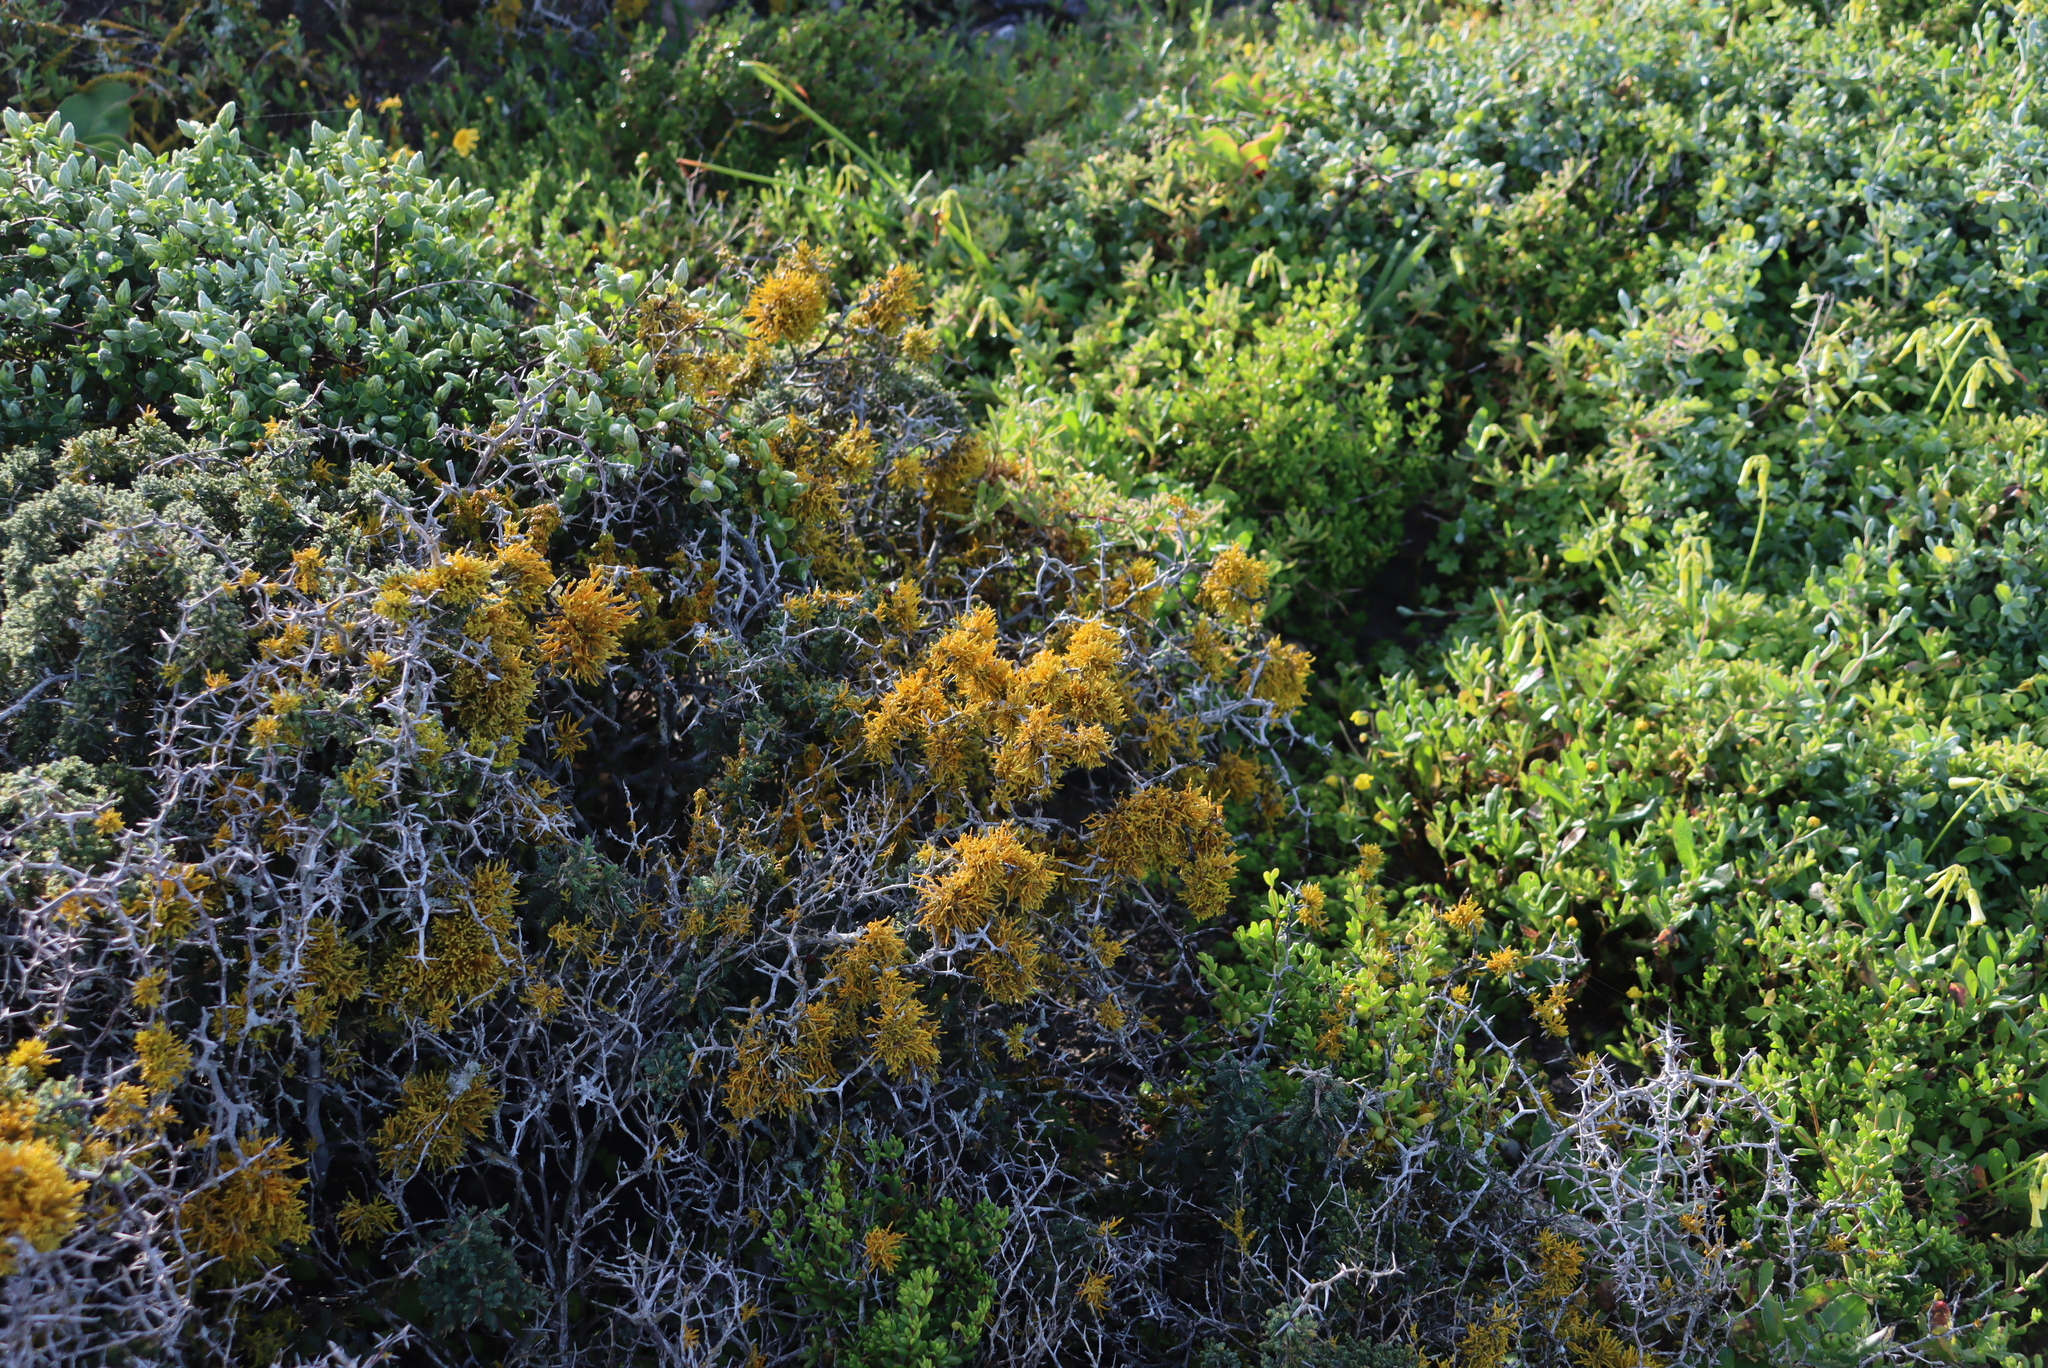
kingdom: Fungi
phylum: Ascomycota
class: Lecanoromycetes
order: Teloschistales
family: Teloschistaceae
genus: Dufourea
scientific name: Dufourea flammea
